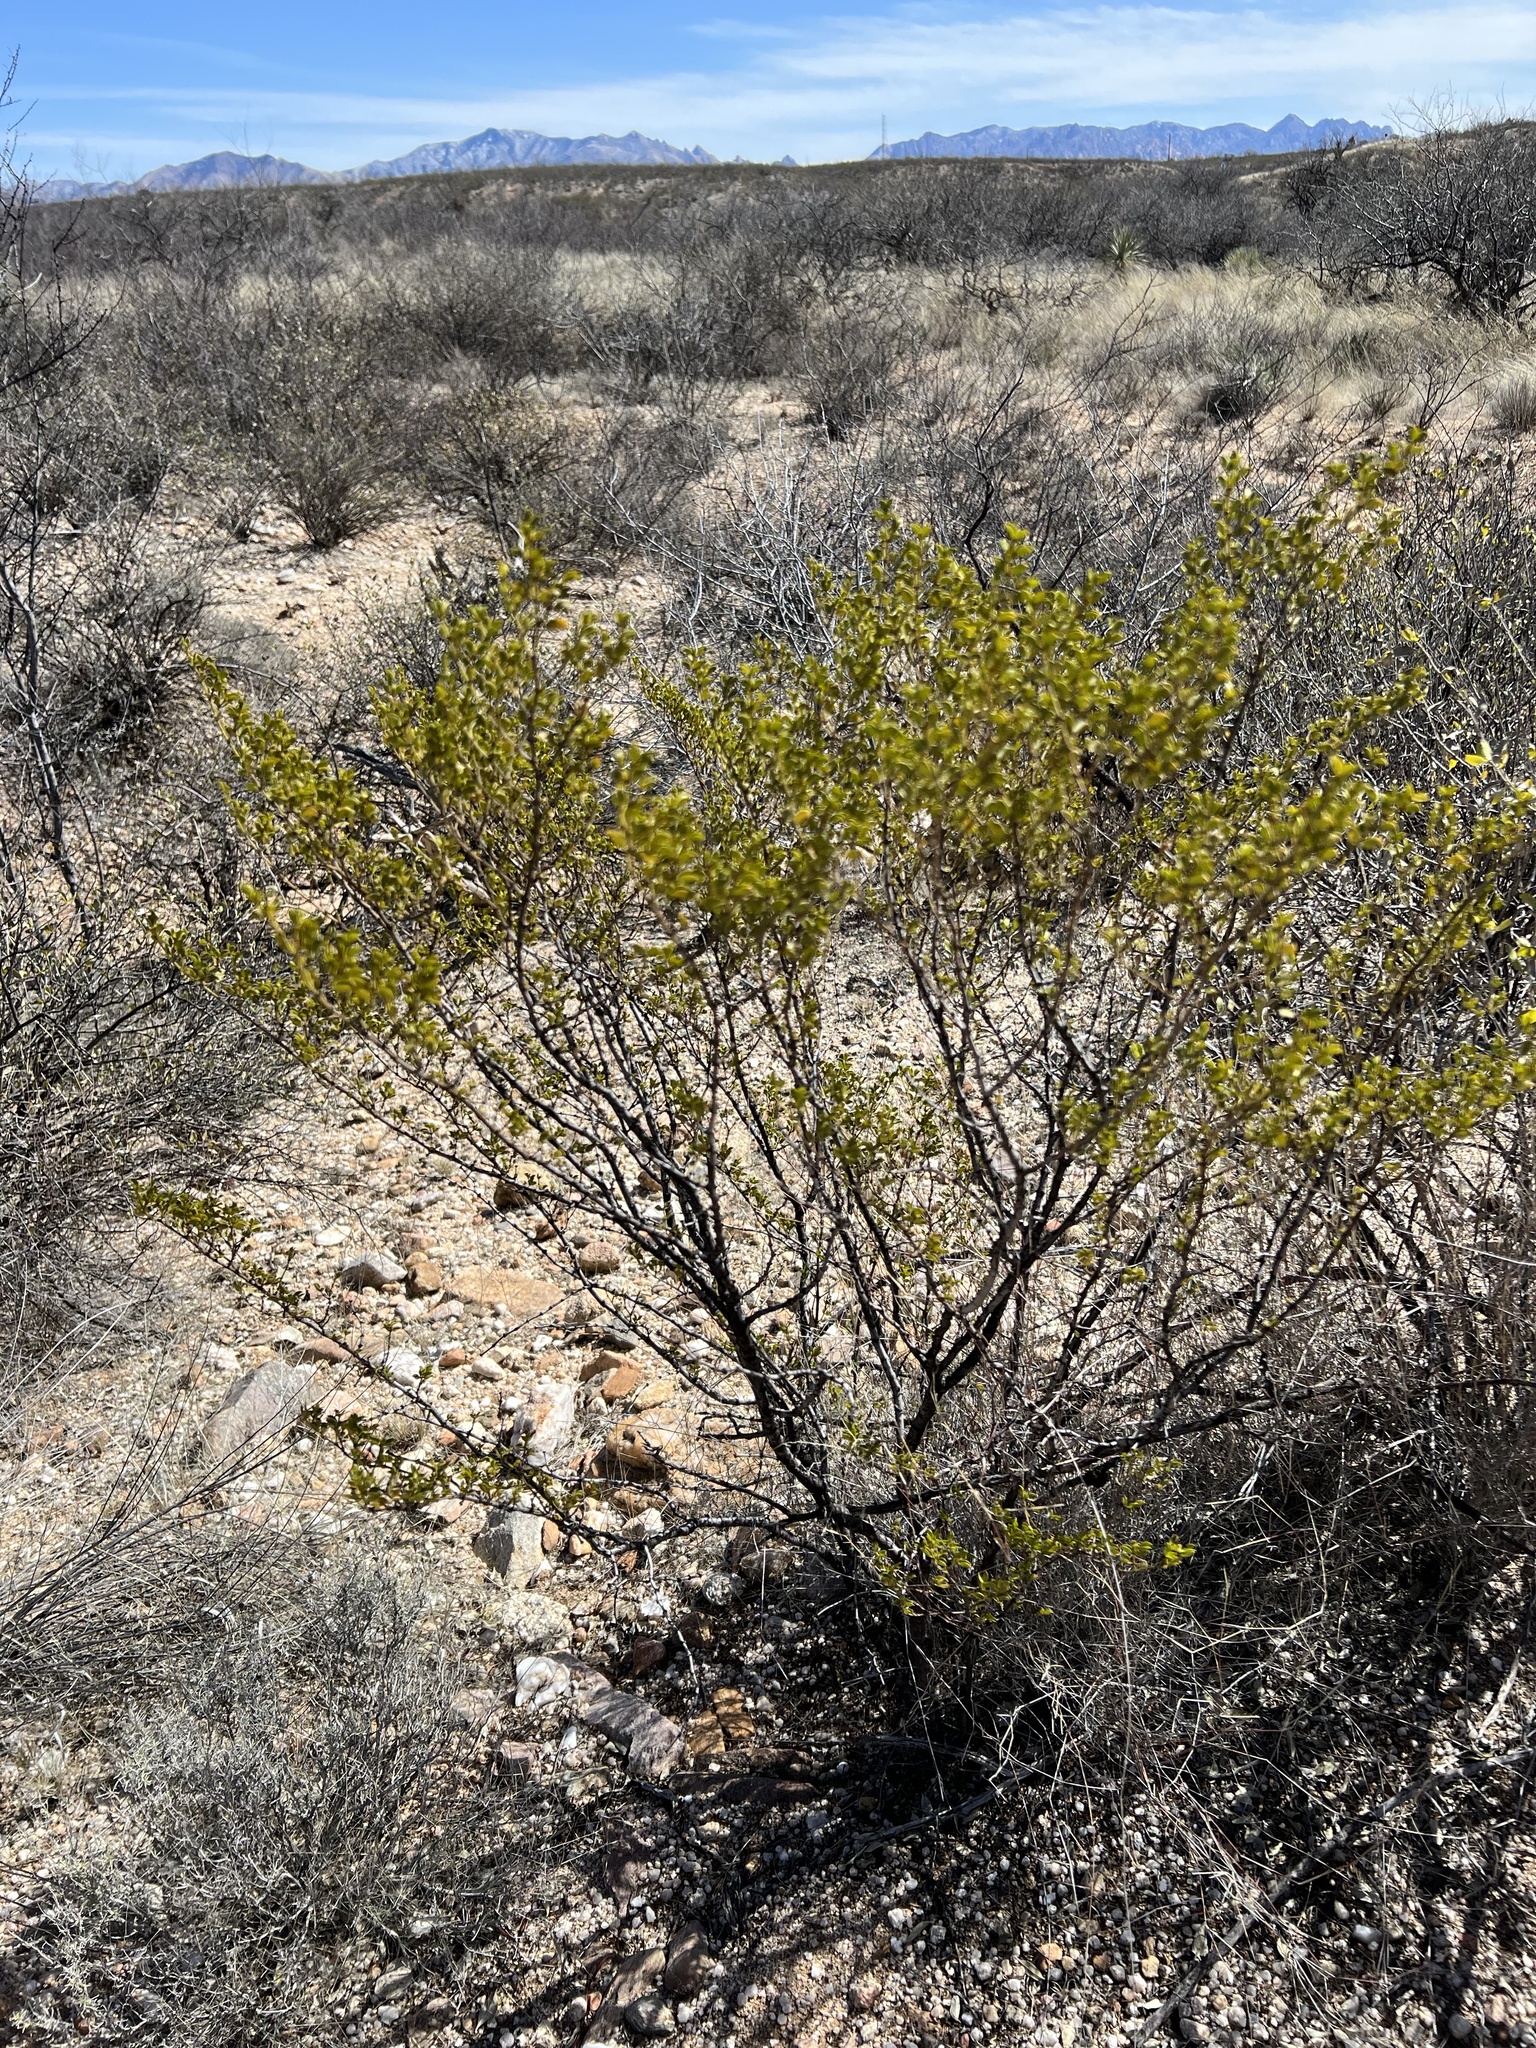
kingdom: Plantae
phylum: Tracheophyta
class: Magnoliopsida
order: Zygophyllales
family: Zygophyllaceae
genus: Larrea
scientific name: Larrea tridentata
